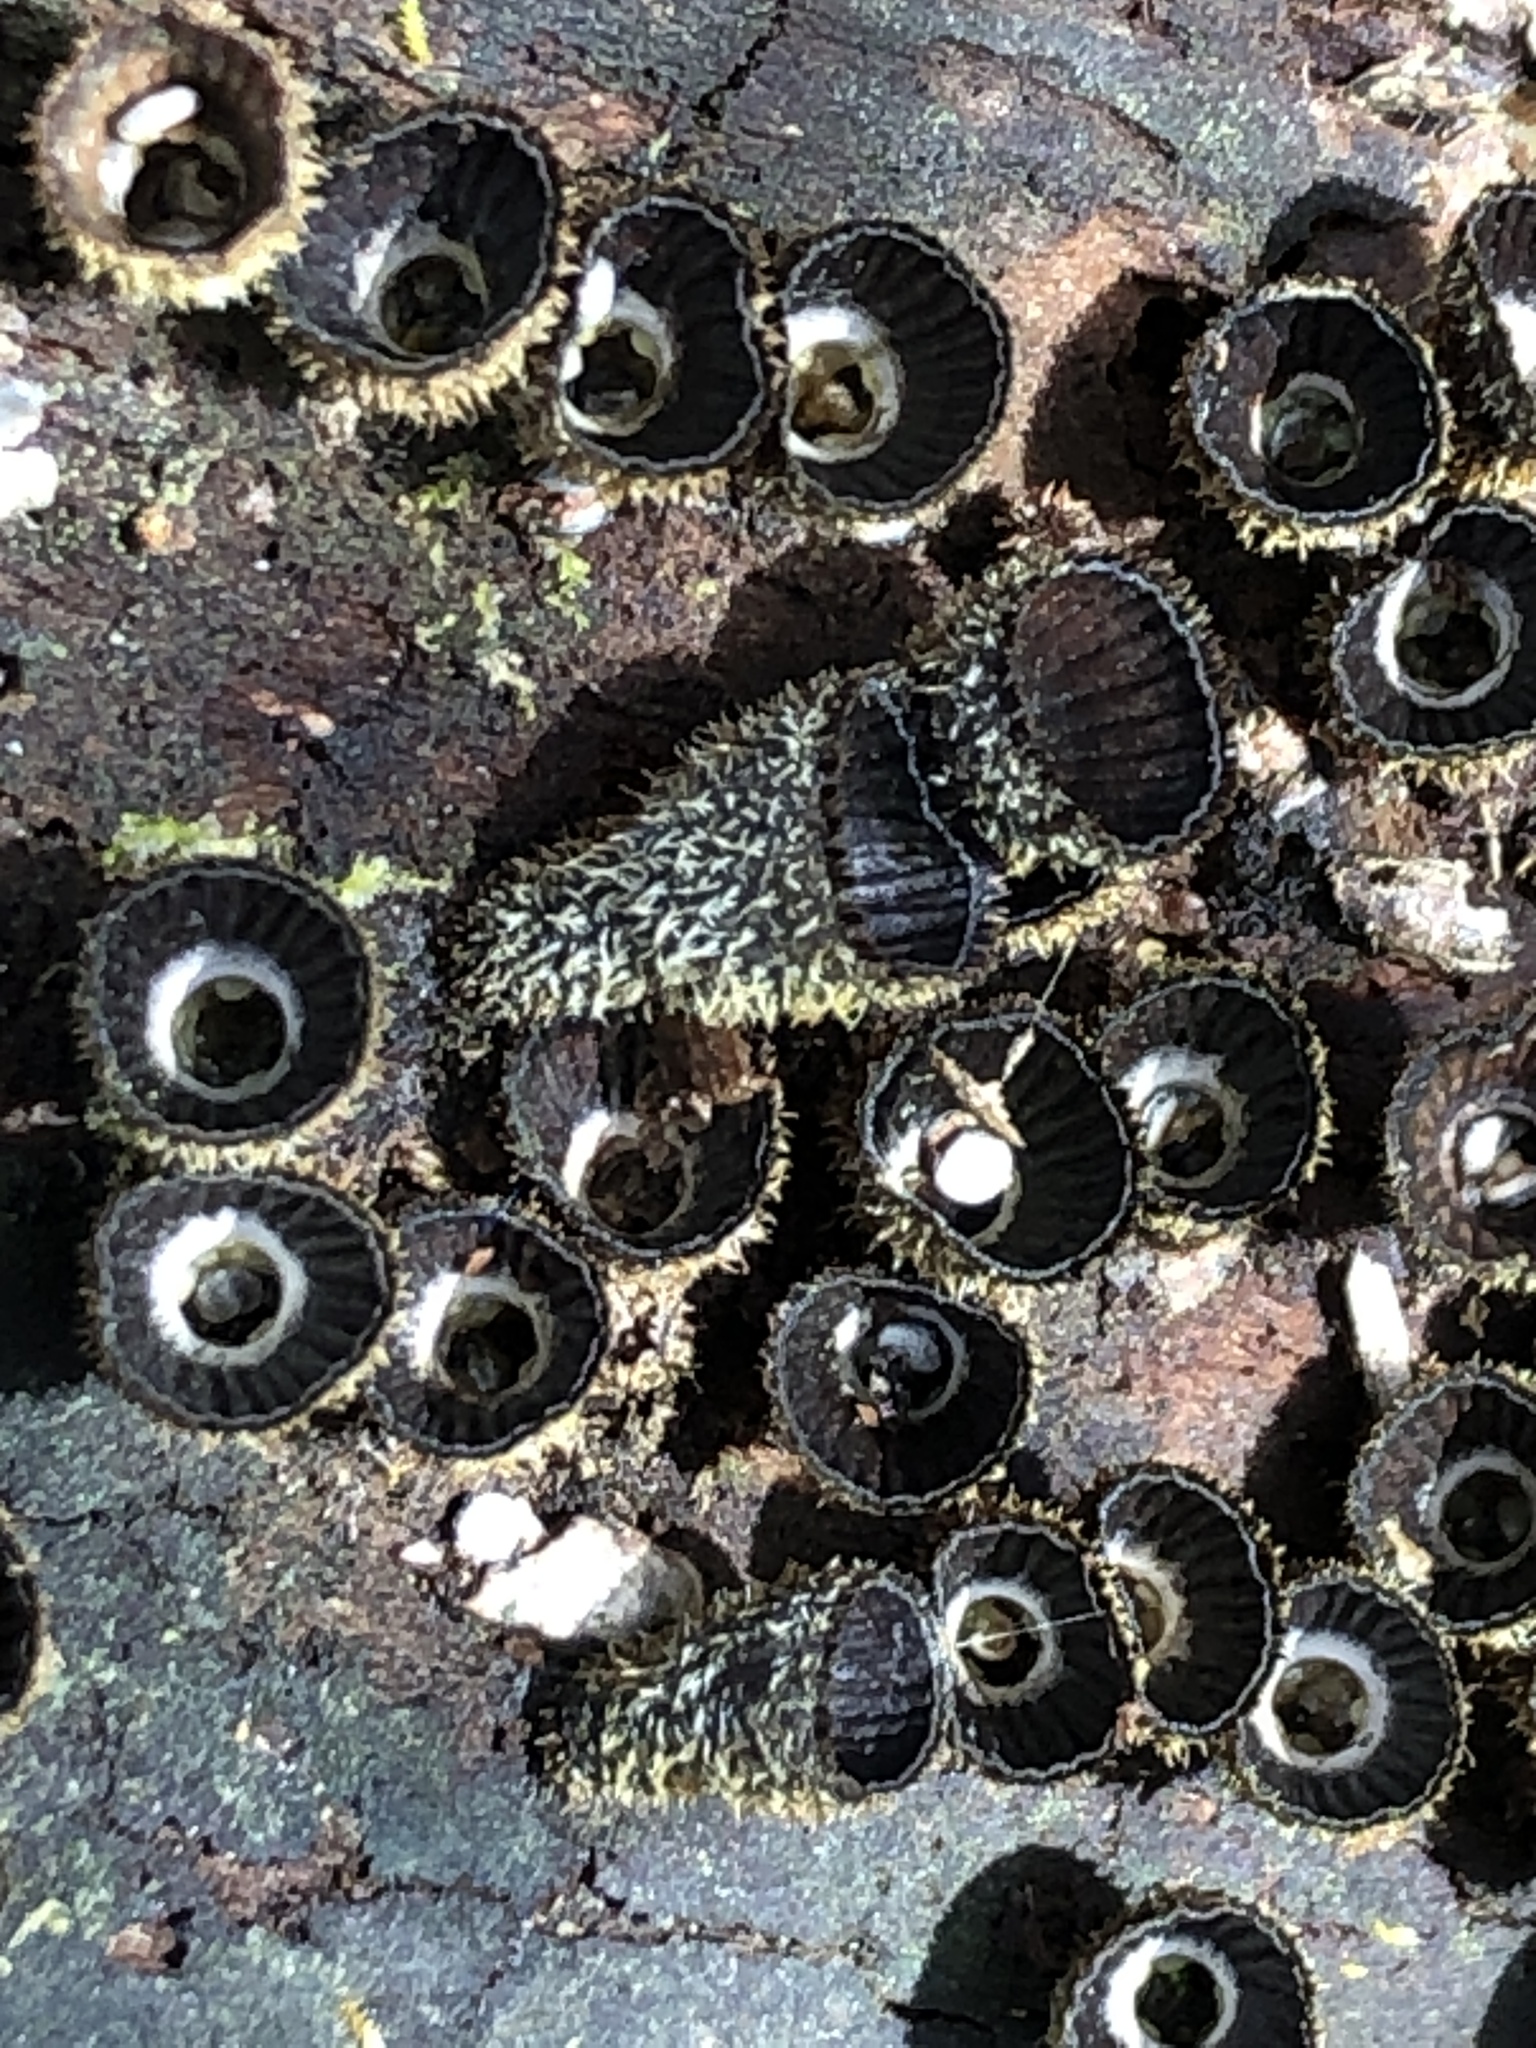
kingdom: Fungi
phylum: Basidiomycota
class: Agaricomycetes
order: Agaricales
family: Agaricaceae
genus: Cyathus
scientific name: Cyathus striatus
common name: Fluted bird's nest
